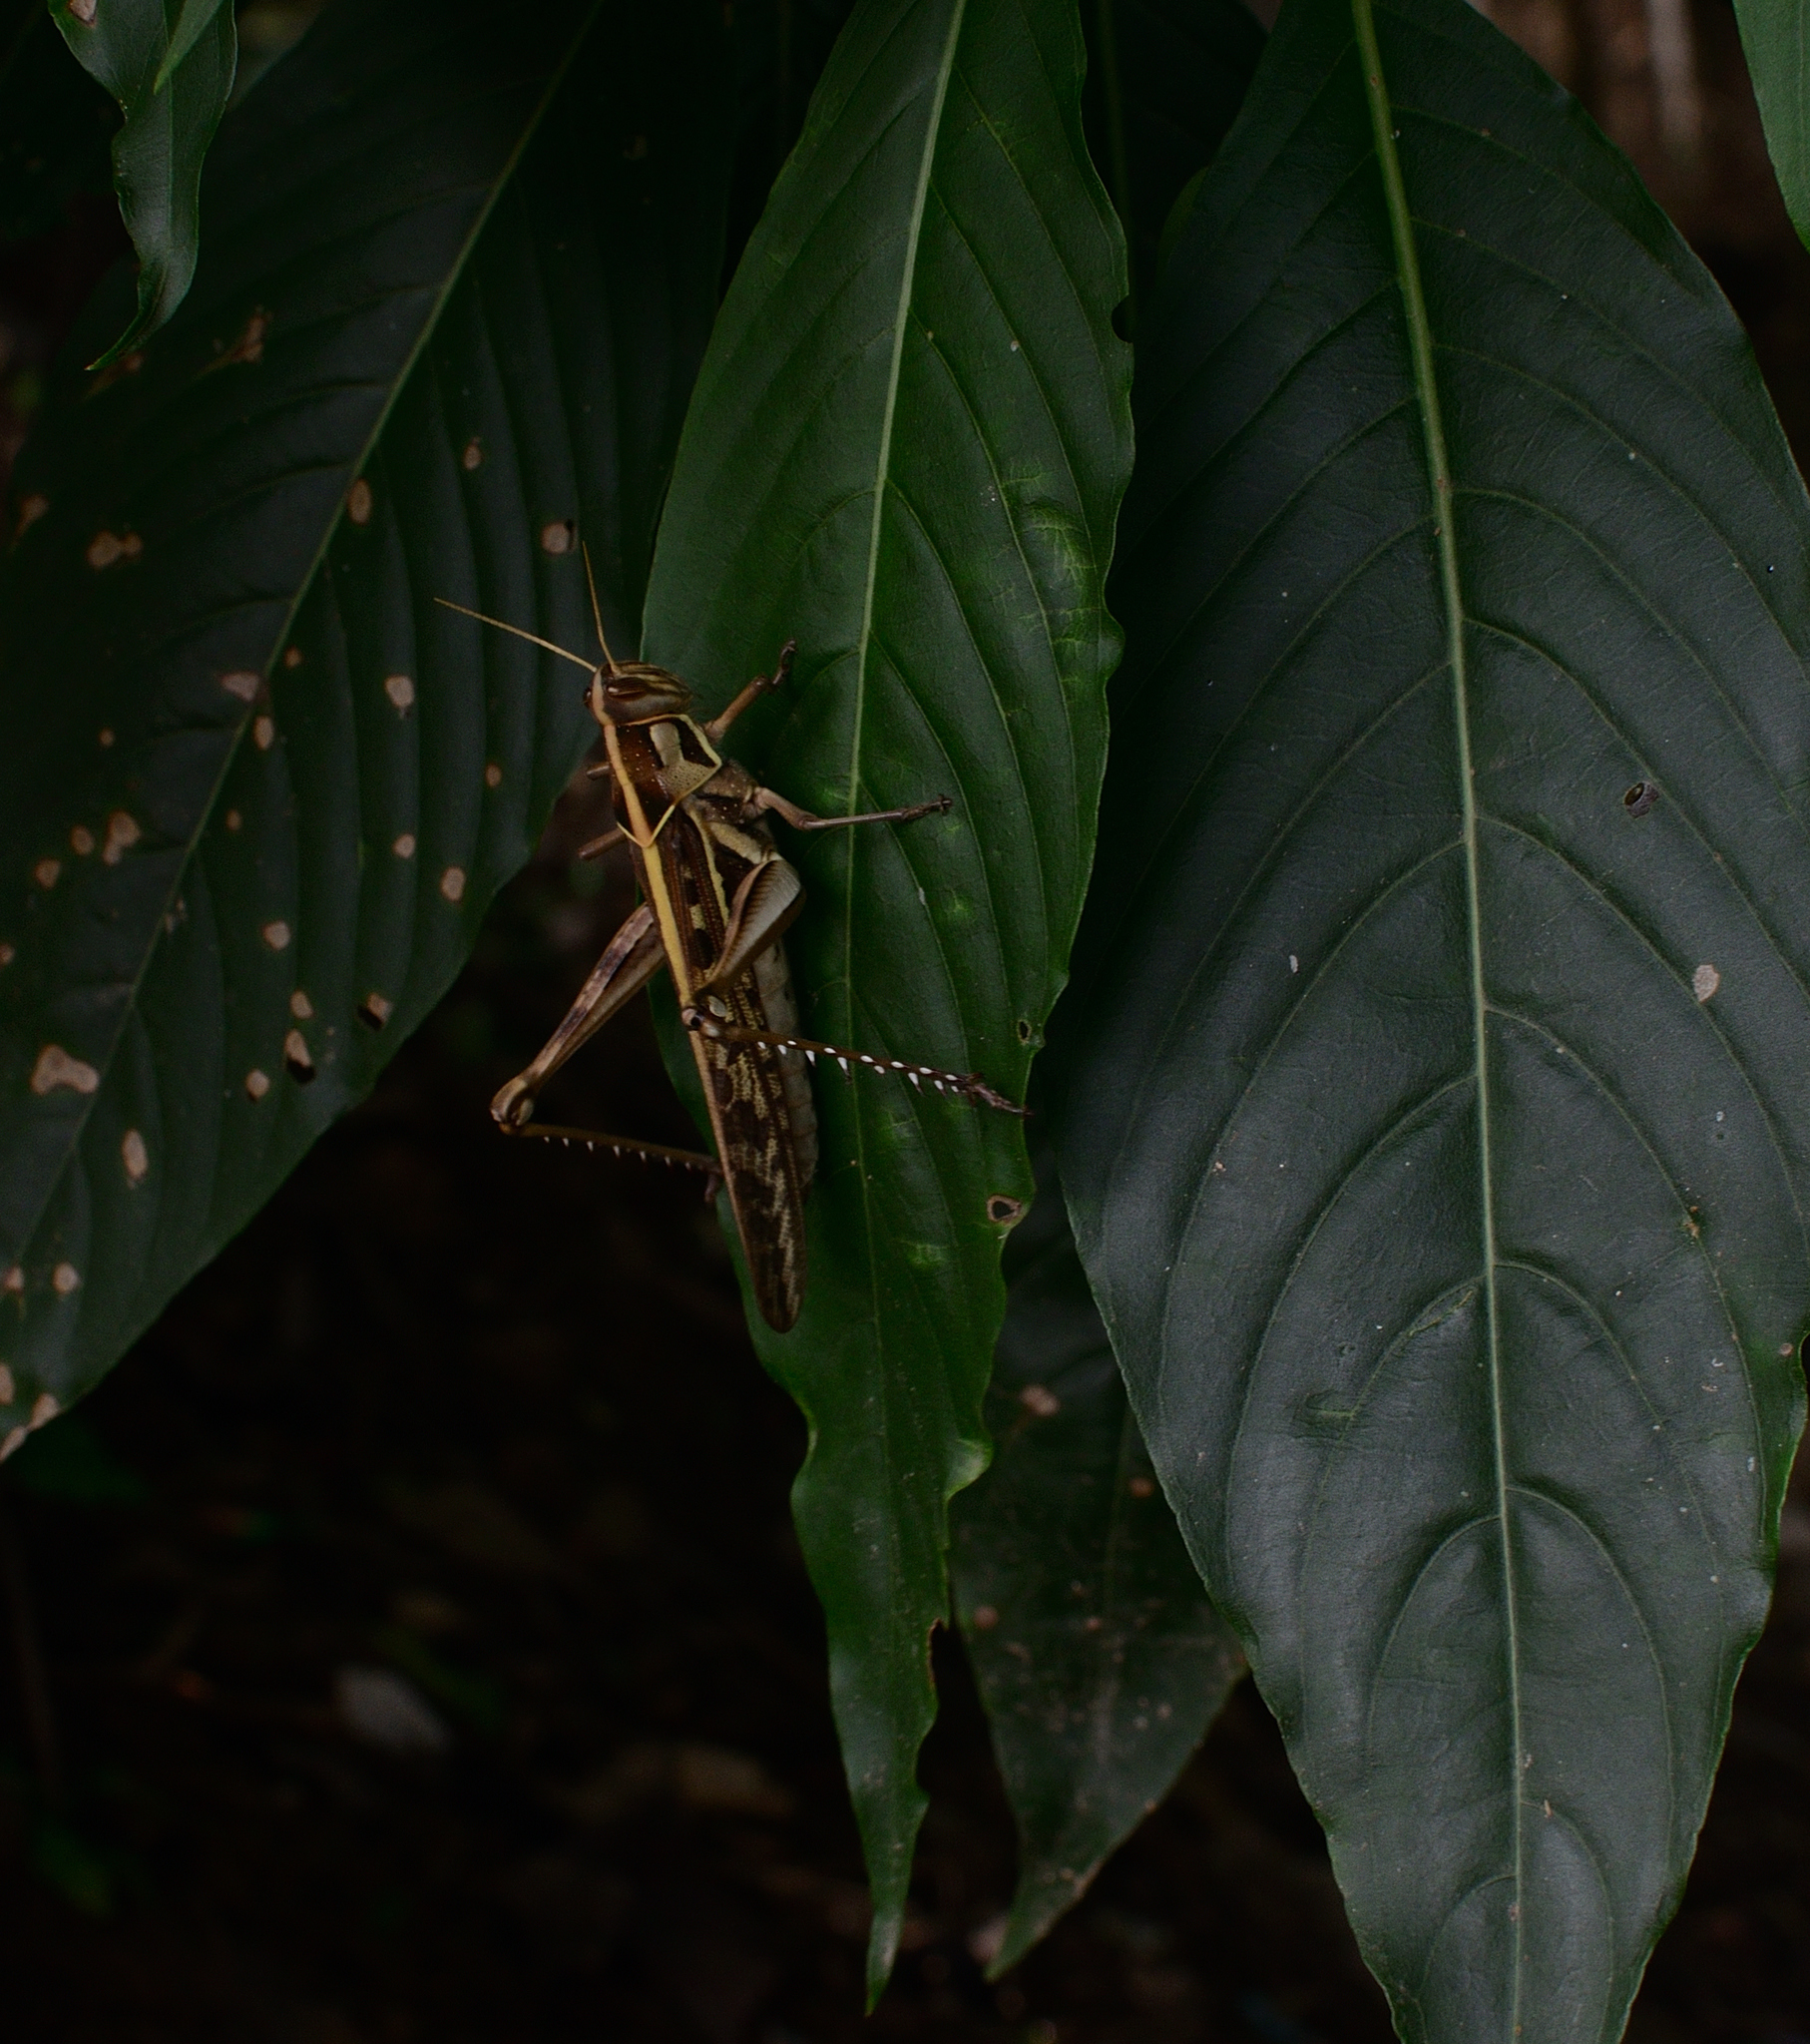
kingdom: Animalia
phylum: Arthropoda
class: Insecta
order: Orthoptera
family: Acrididae
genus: Cyrtacanthacris
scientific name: Cyrtacanthacris tatarica
